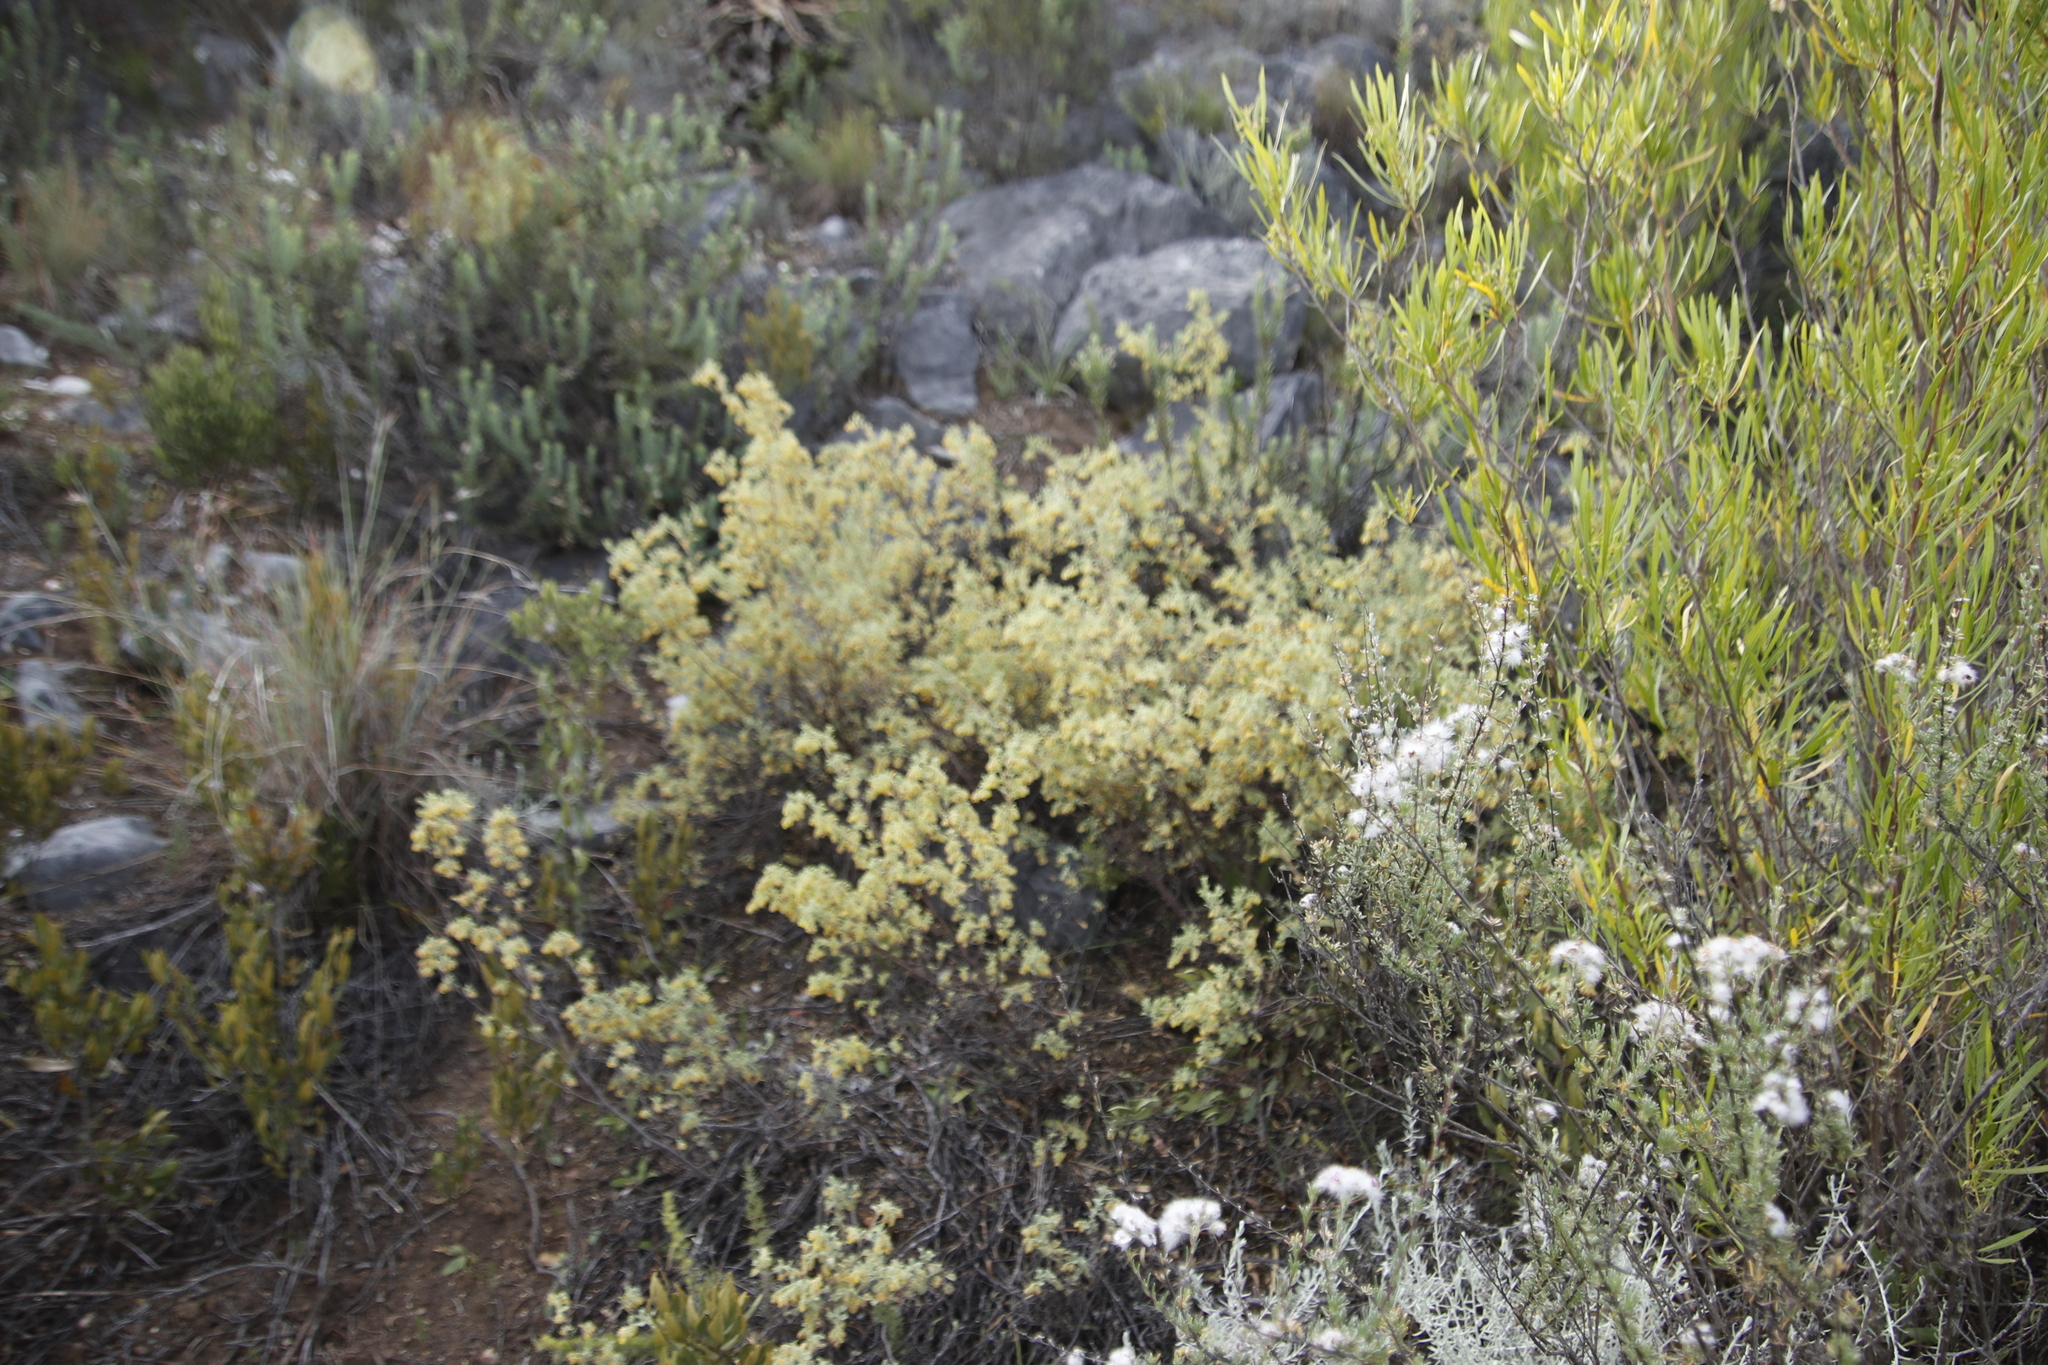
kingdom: Plantae
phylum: Tracheophyta
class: Magnoliopsida
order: Malvales
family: Malvaceae
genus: Hermannia
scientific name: Hermannia holosericea
